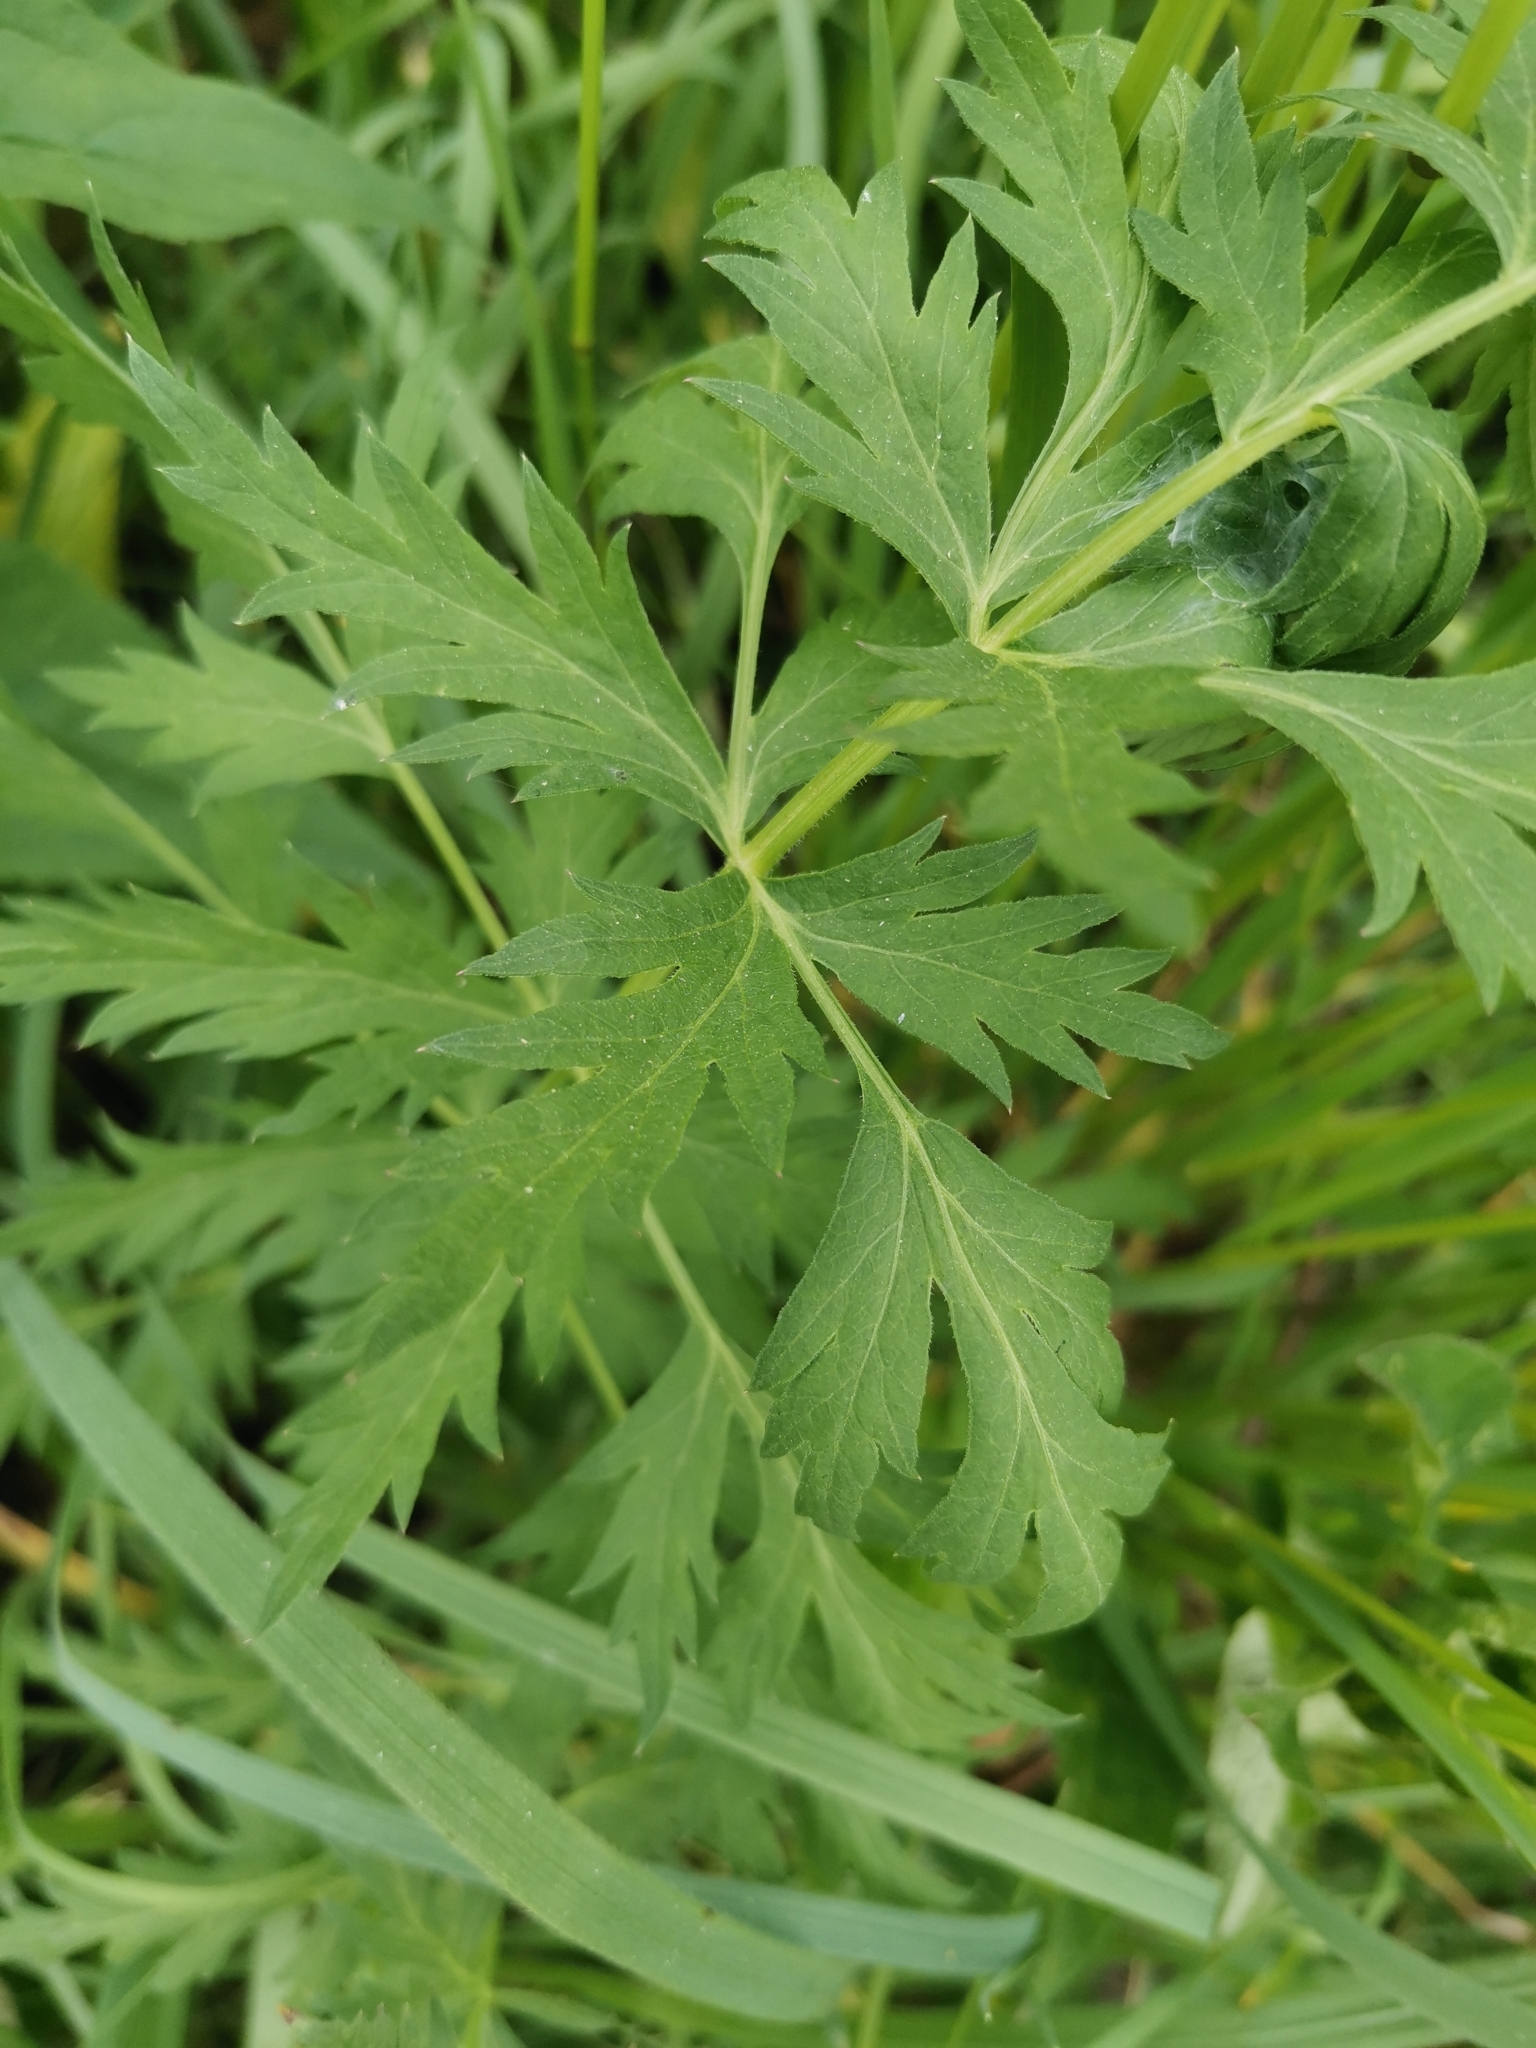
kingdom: Plantae
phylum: Tracheophyta
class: Magnoliopsida
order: Apiales
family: Apiaceae
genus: Seseli
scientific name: Seseli libanotis
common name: Mooncarrot
